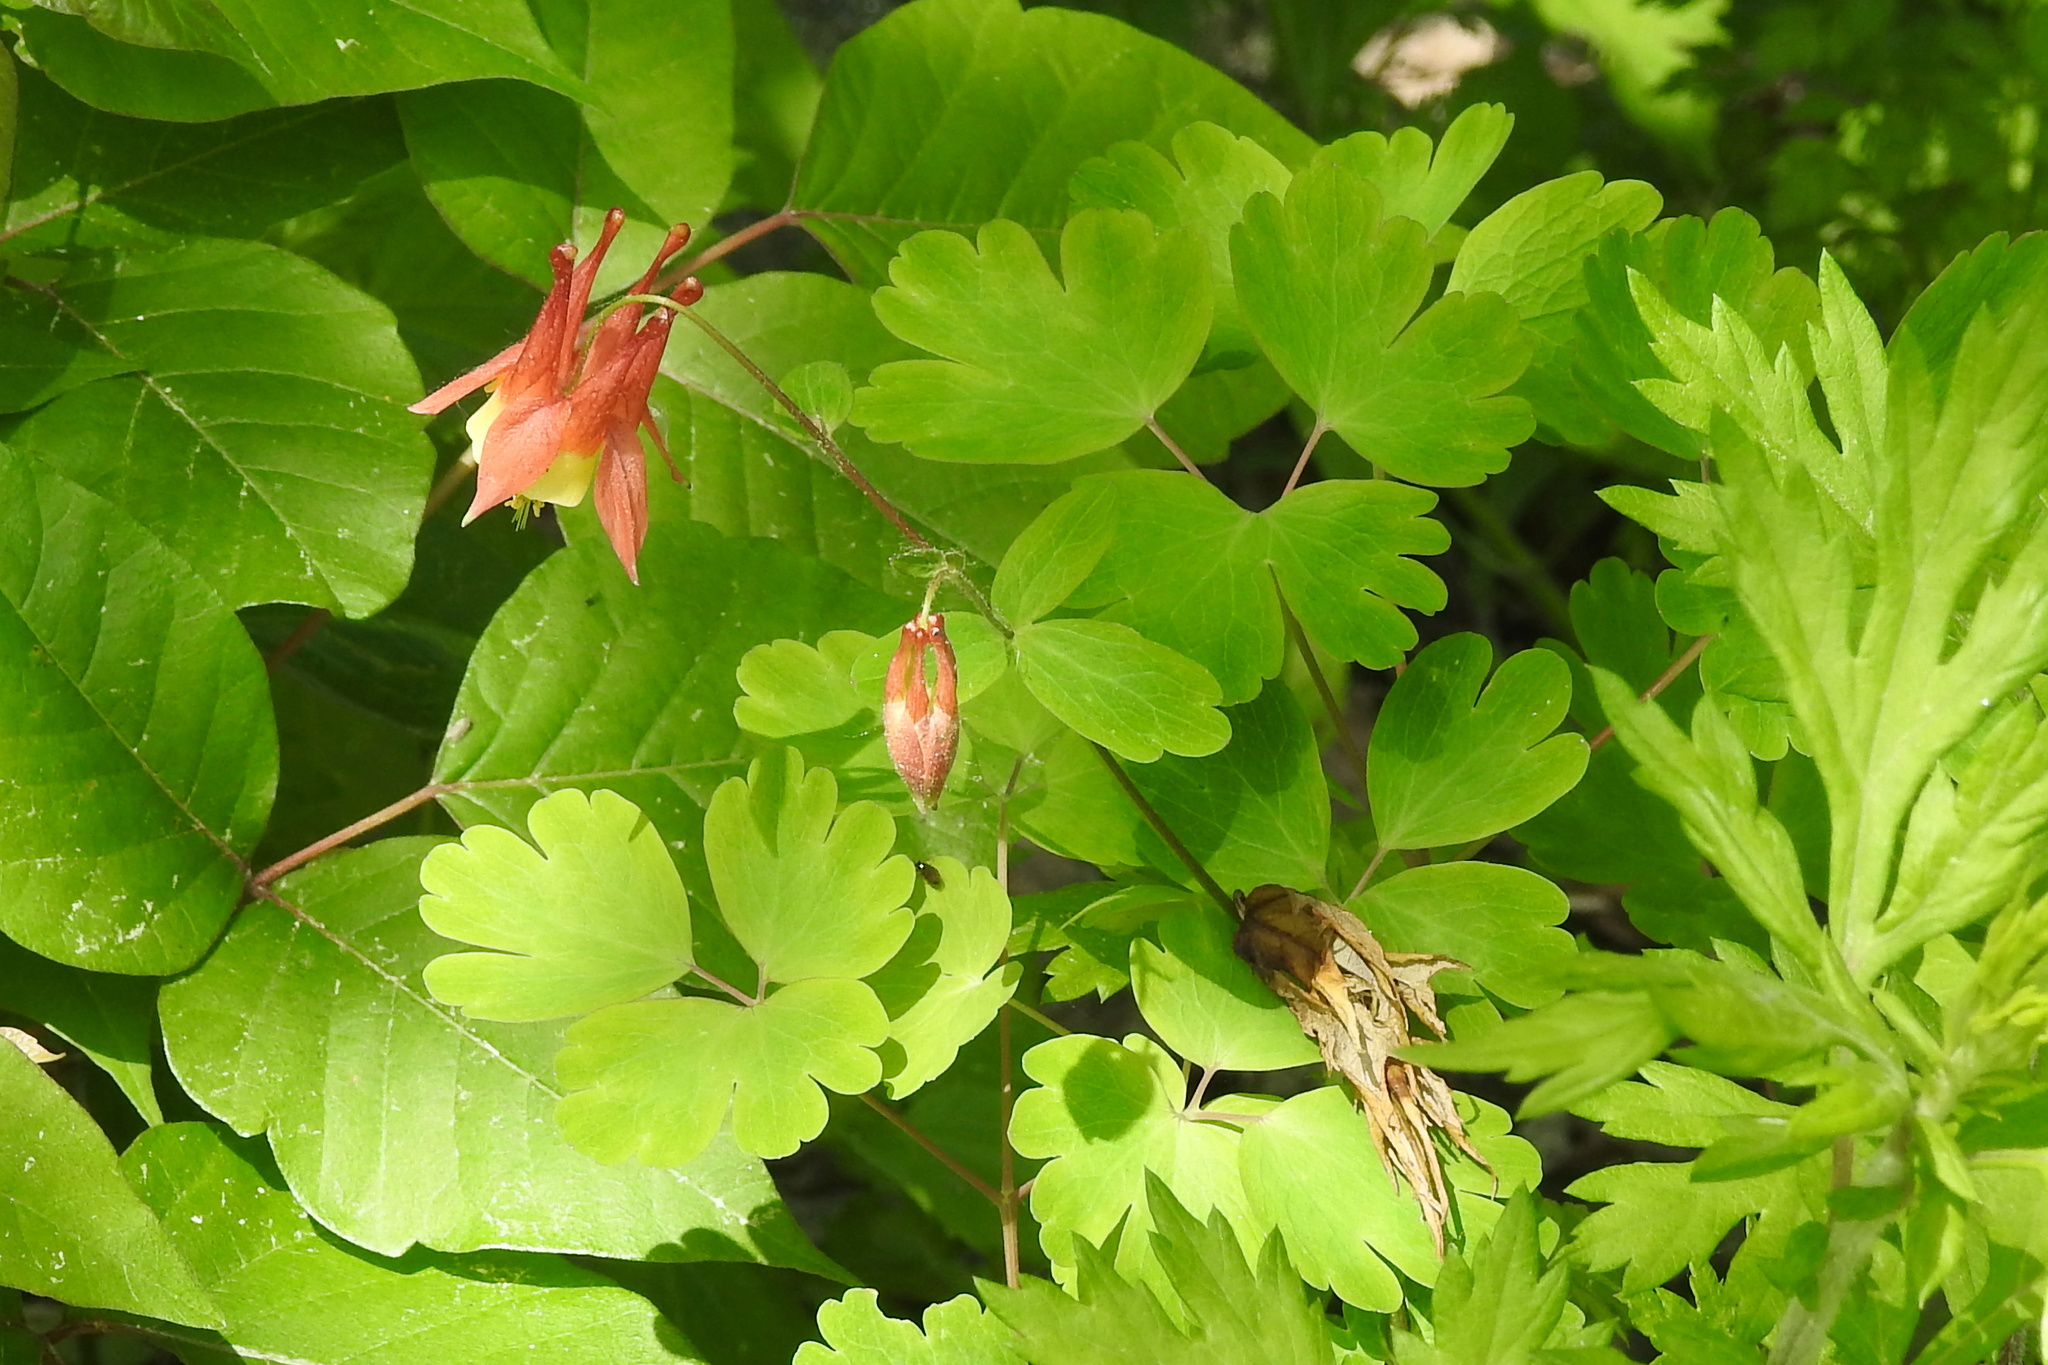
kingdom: Plantae
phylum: Tracheophyta
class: Magnoliopsida
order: Ranunculales
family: Ranunculaceae
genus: Aquilegia
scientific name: Aquilegia canadensis
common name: American columbine
